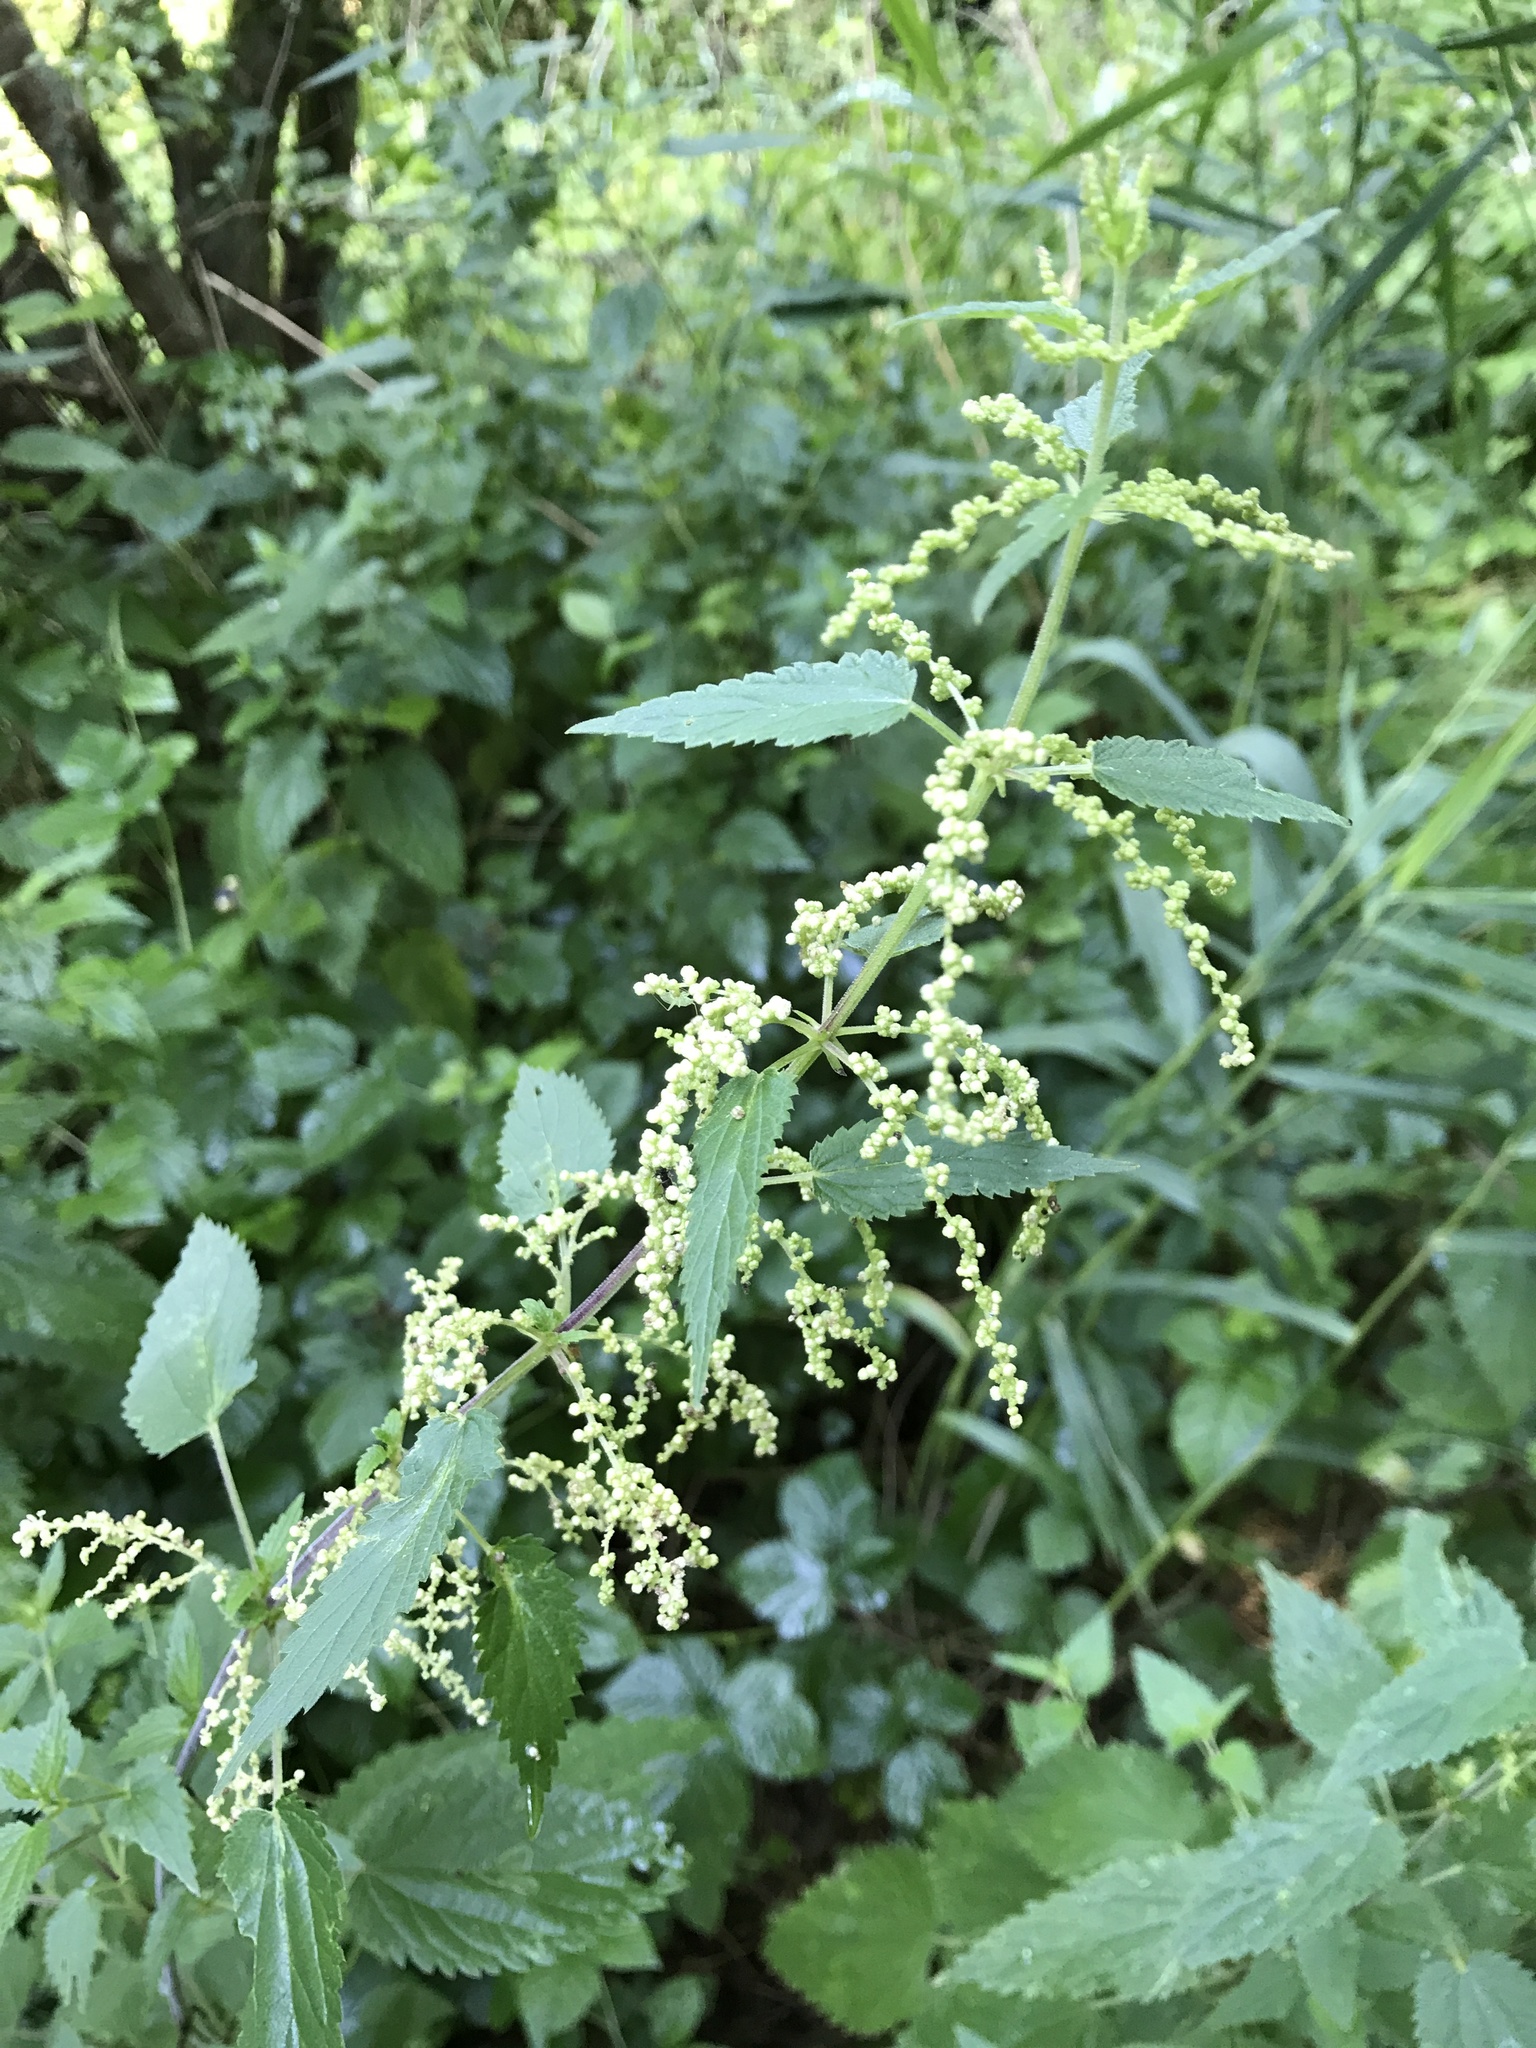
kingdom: Plantae
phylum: Tracheophyta
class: Magnoliopsida
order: Rosales
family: Urticaceae
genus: Urtica
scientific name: Urtica dioica
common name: Common nettle
